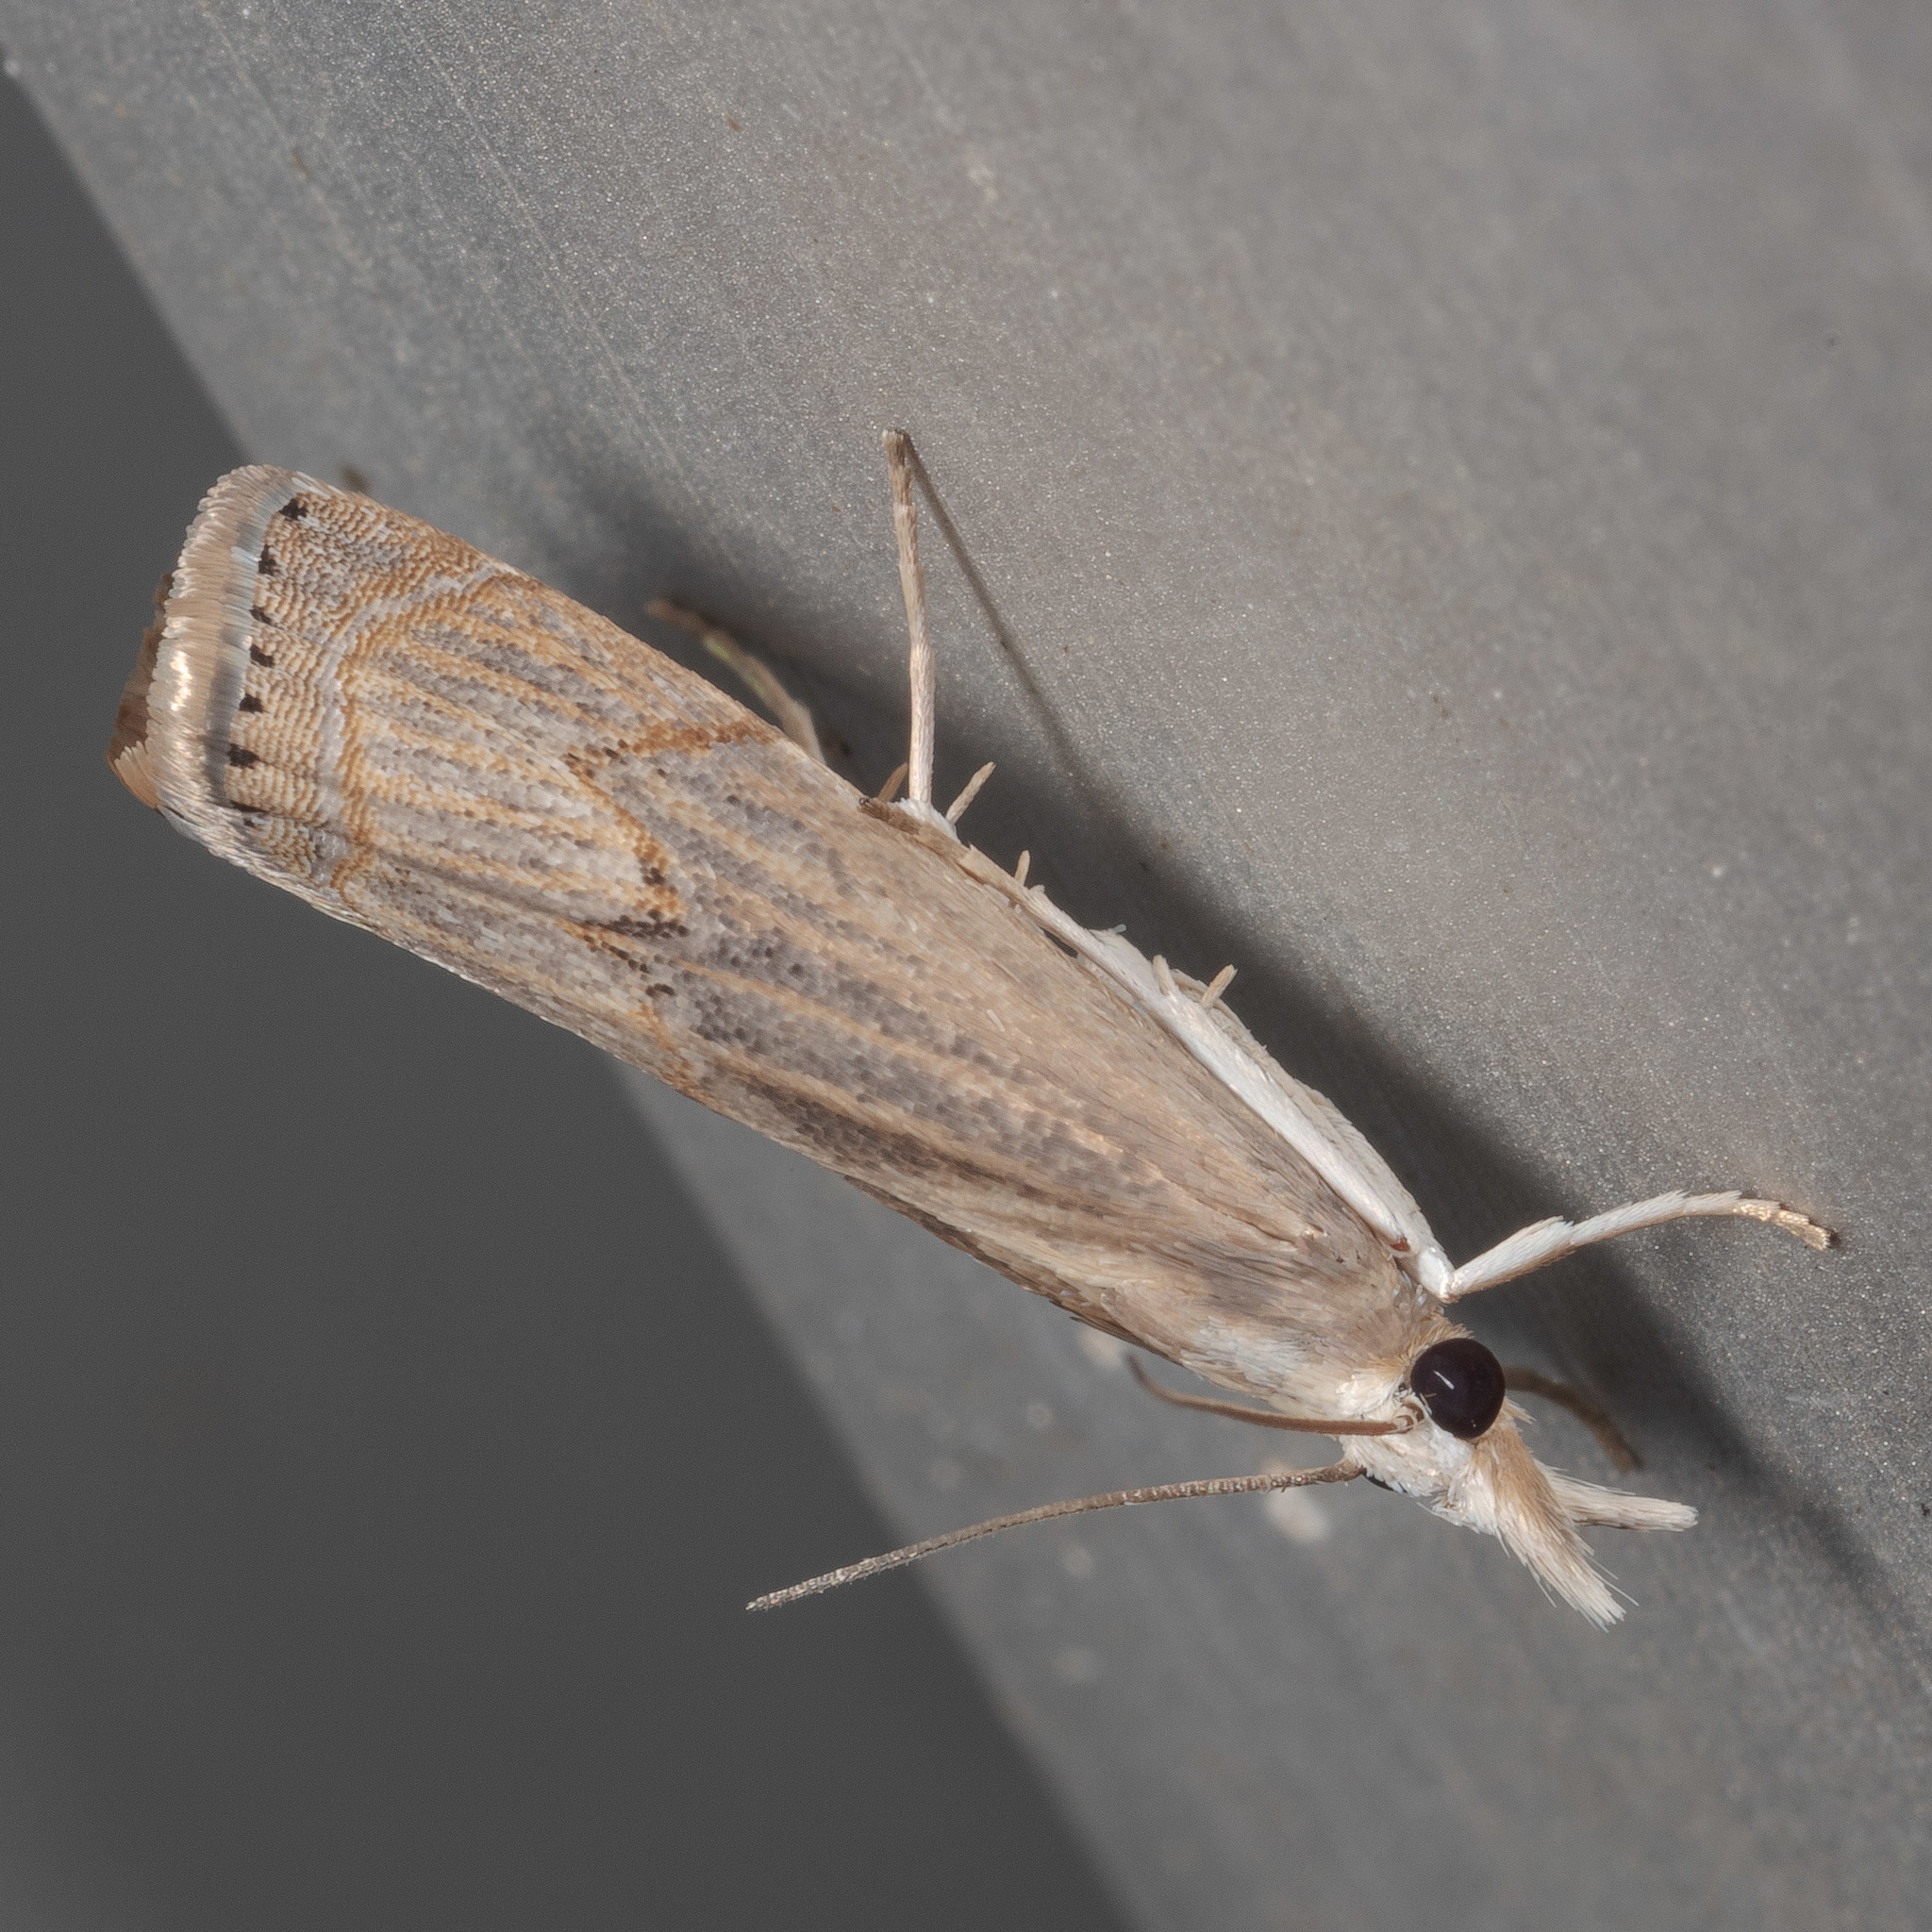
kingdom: Animalia
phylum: Arthropoda
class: Insecta
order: Lepidoptera
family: Crambidae
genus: Parapediasia
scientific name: Parapediasia teterellus
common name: Bluegrass webworm moth
